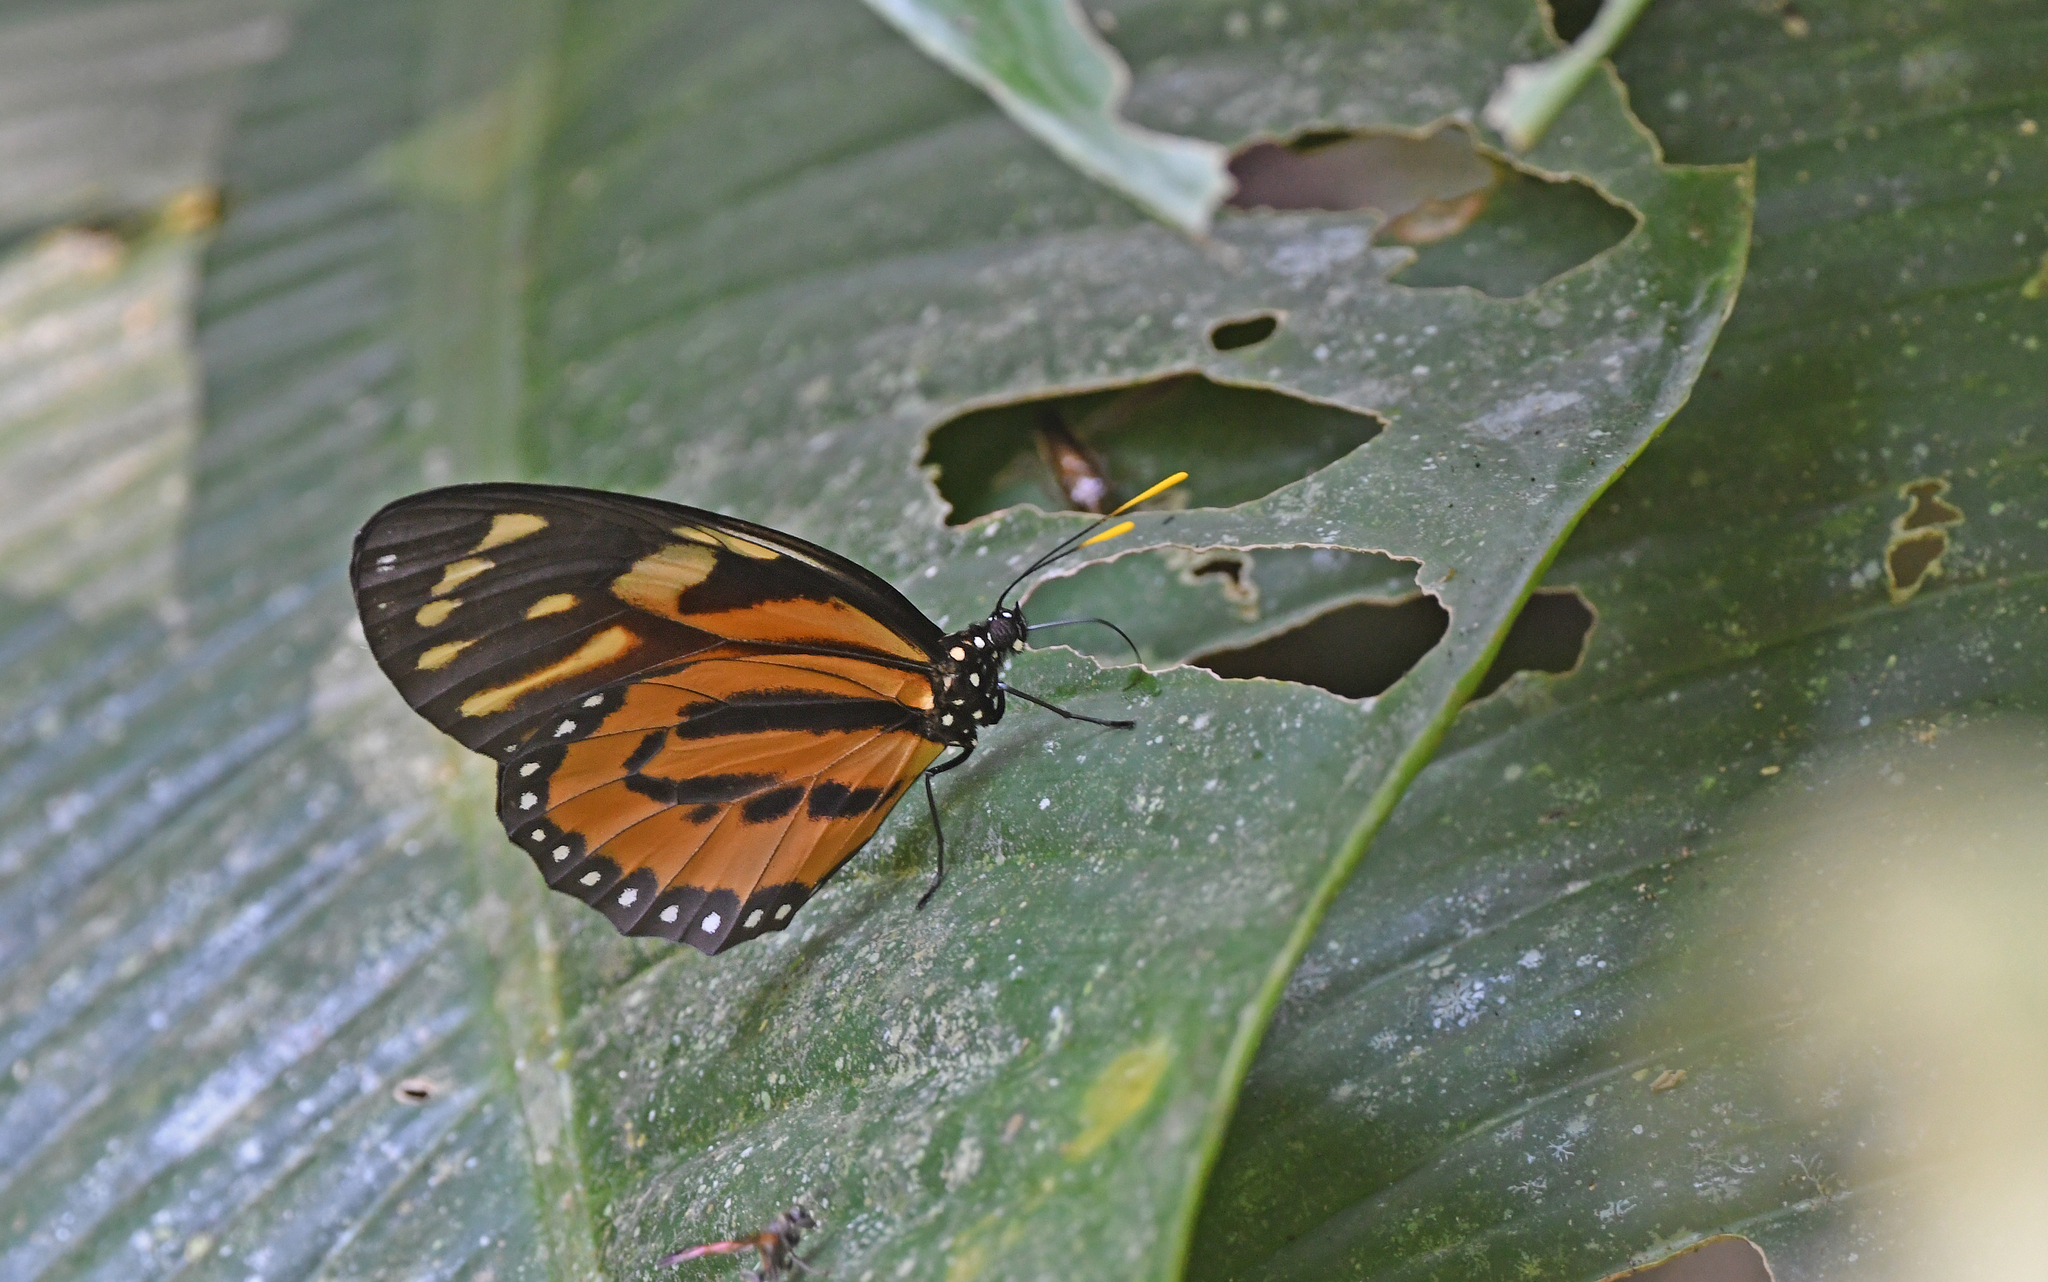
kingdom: Animalia
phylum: Arthropoda
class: Insecta
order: Lepidoptera
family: Nymphalidae
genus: Lycorea
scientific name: Lycorea cleobaea
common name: Tiger mimic-queen
